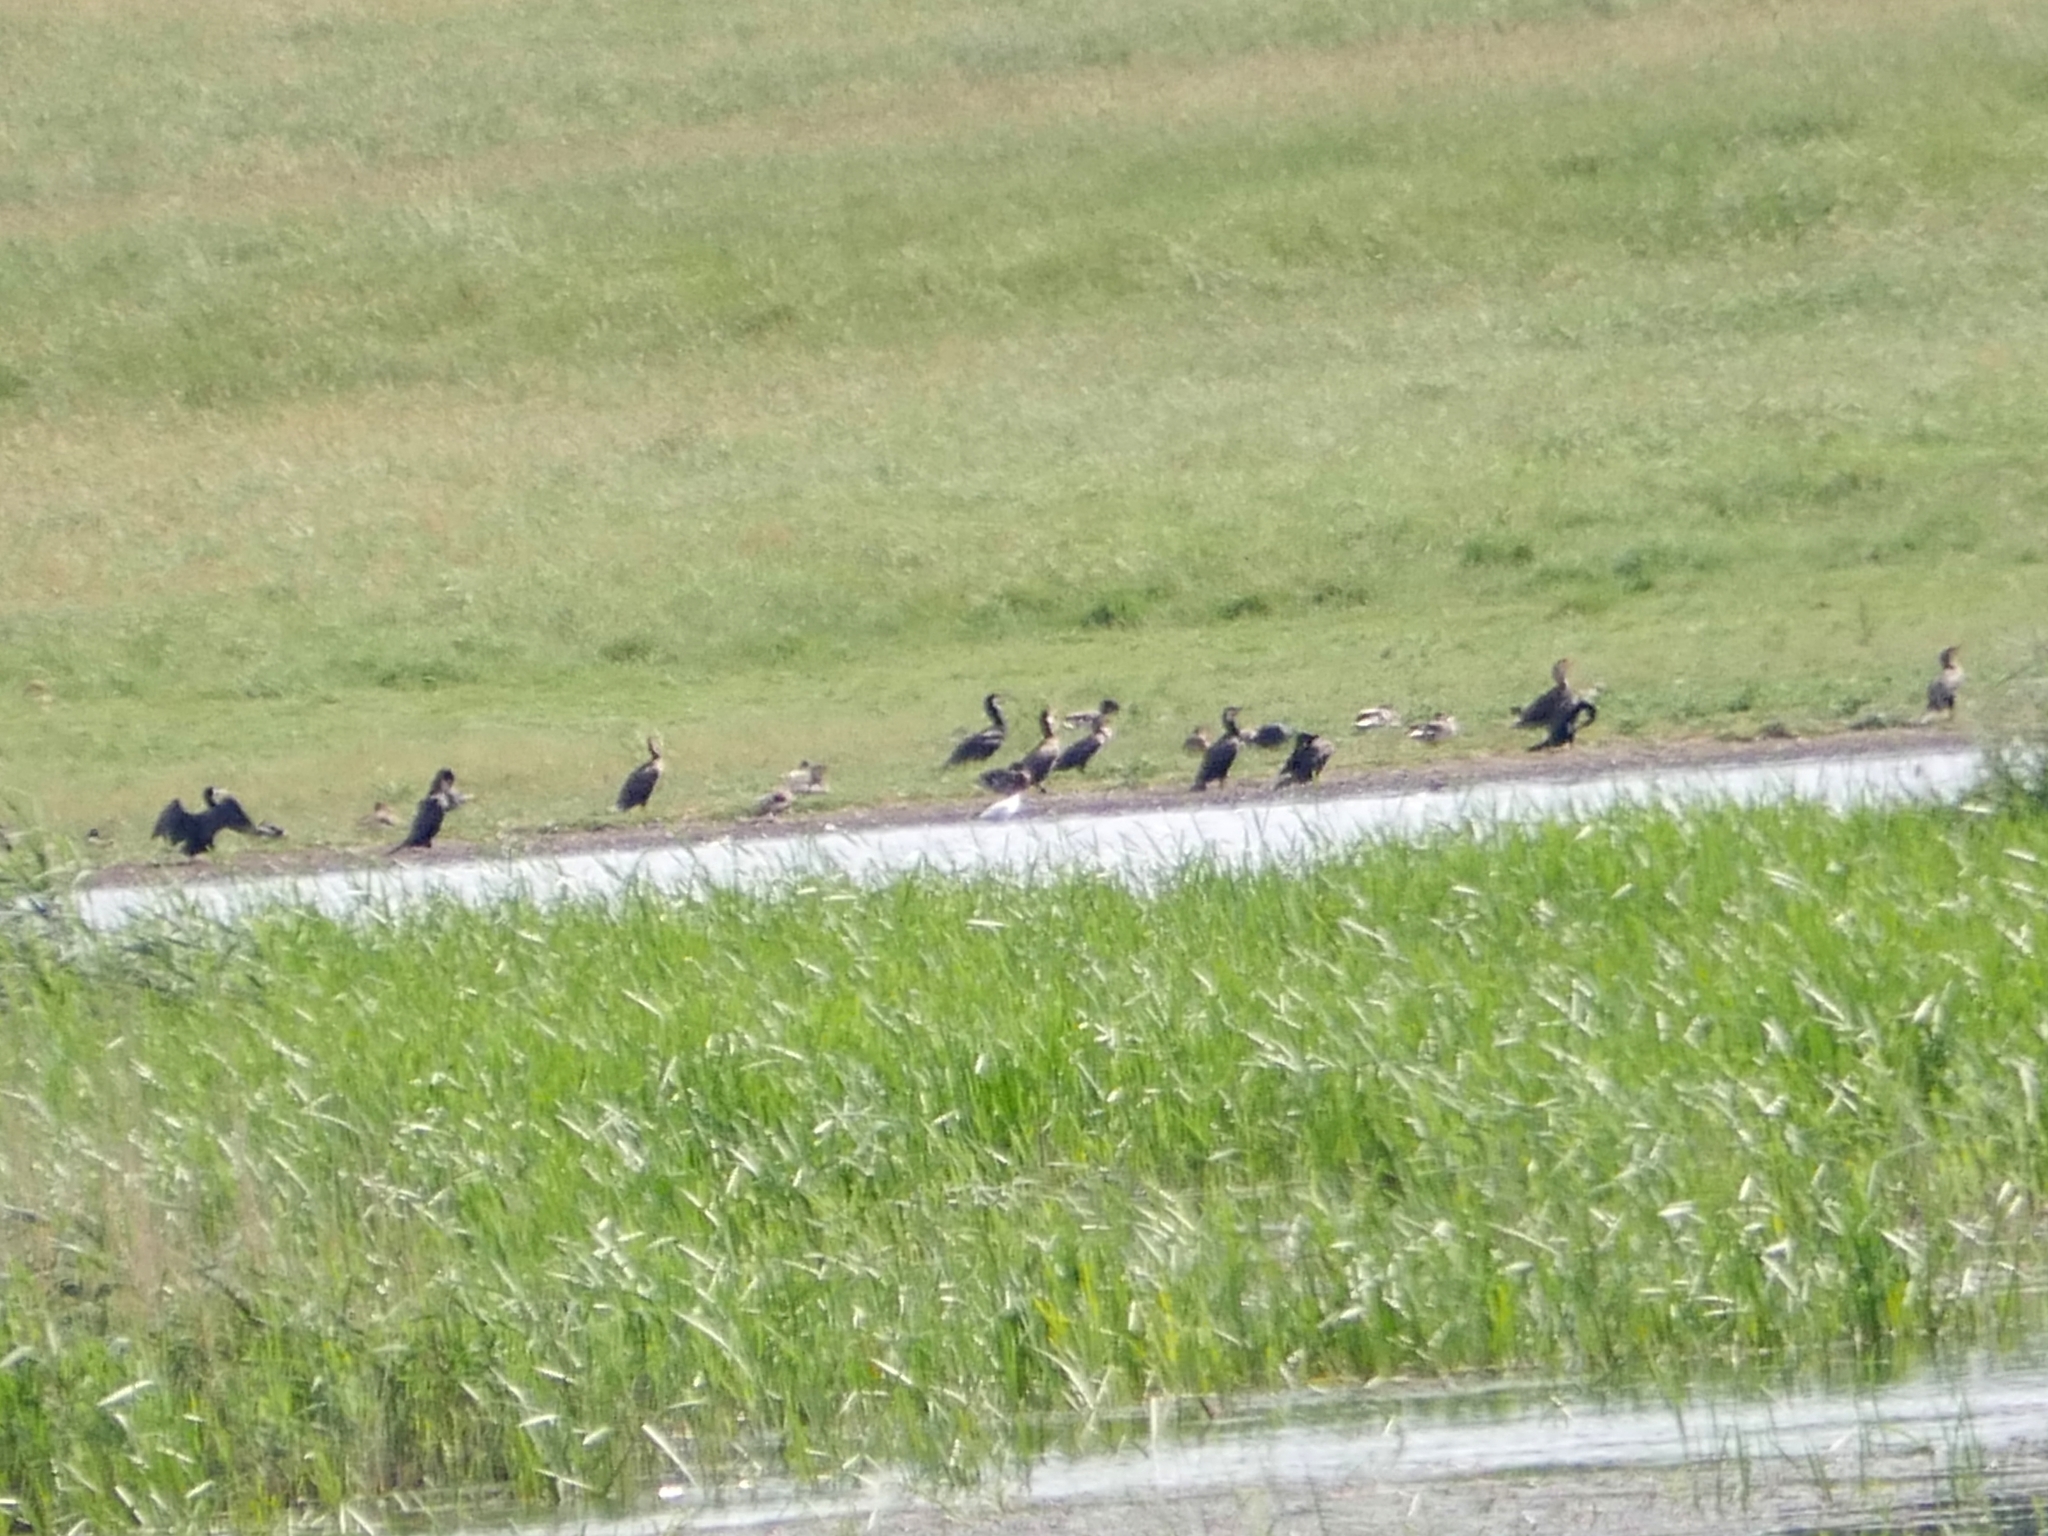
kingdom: Animalia
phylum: Chordata
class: Aves
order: Suliformes
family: Phalacrocoracidae
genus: Phalacrocorax
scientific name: Phalacrocorax carbo
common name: Great cormorant
